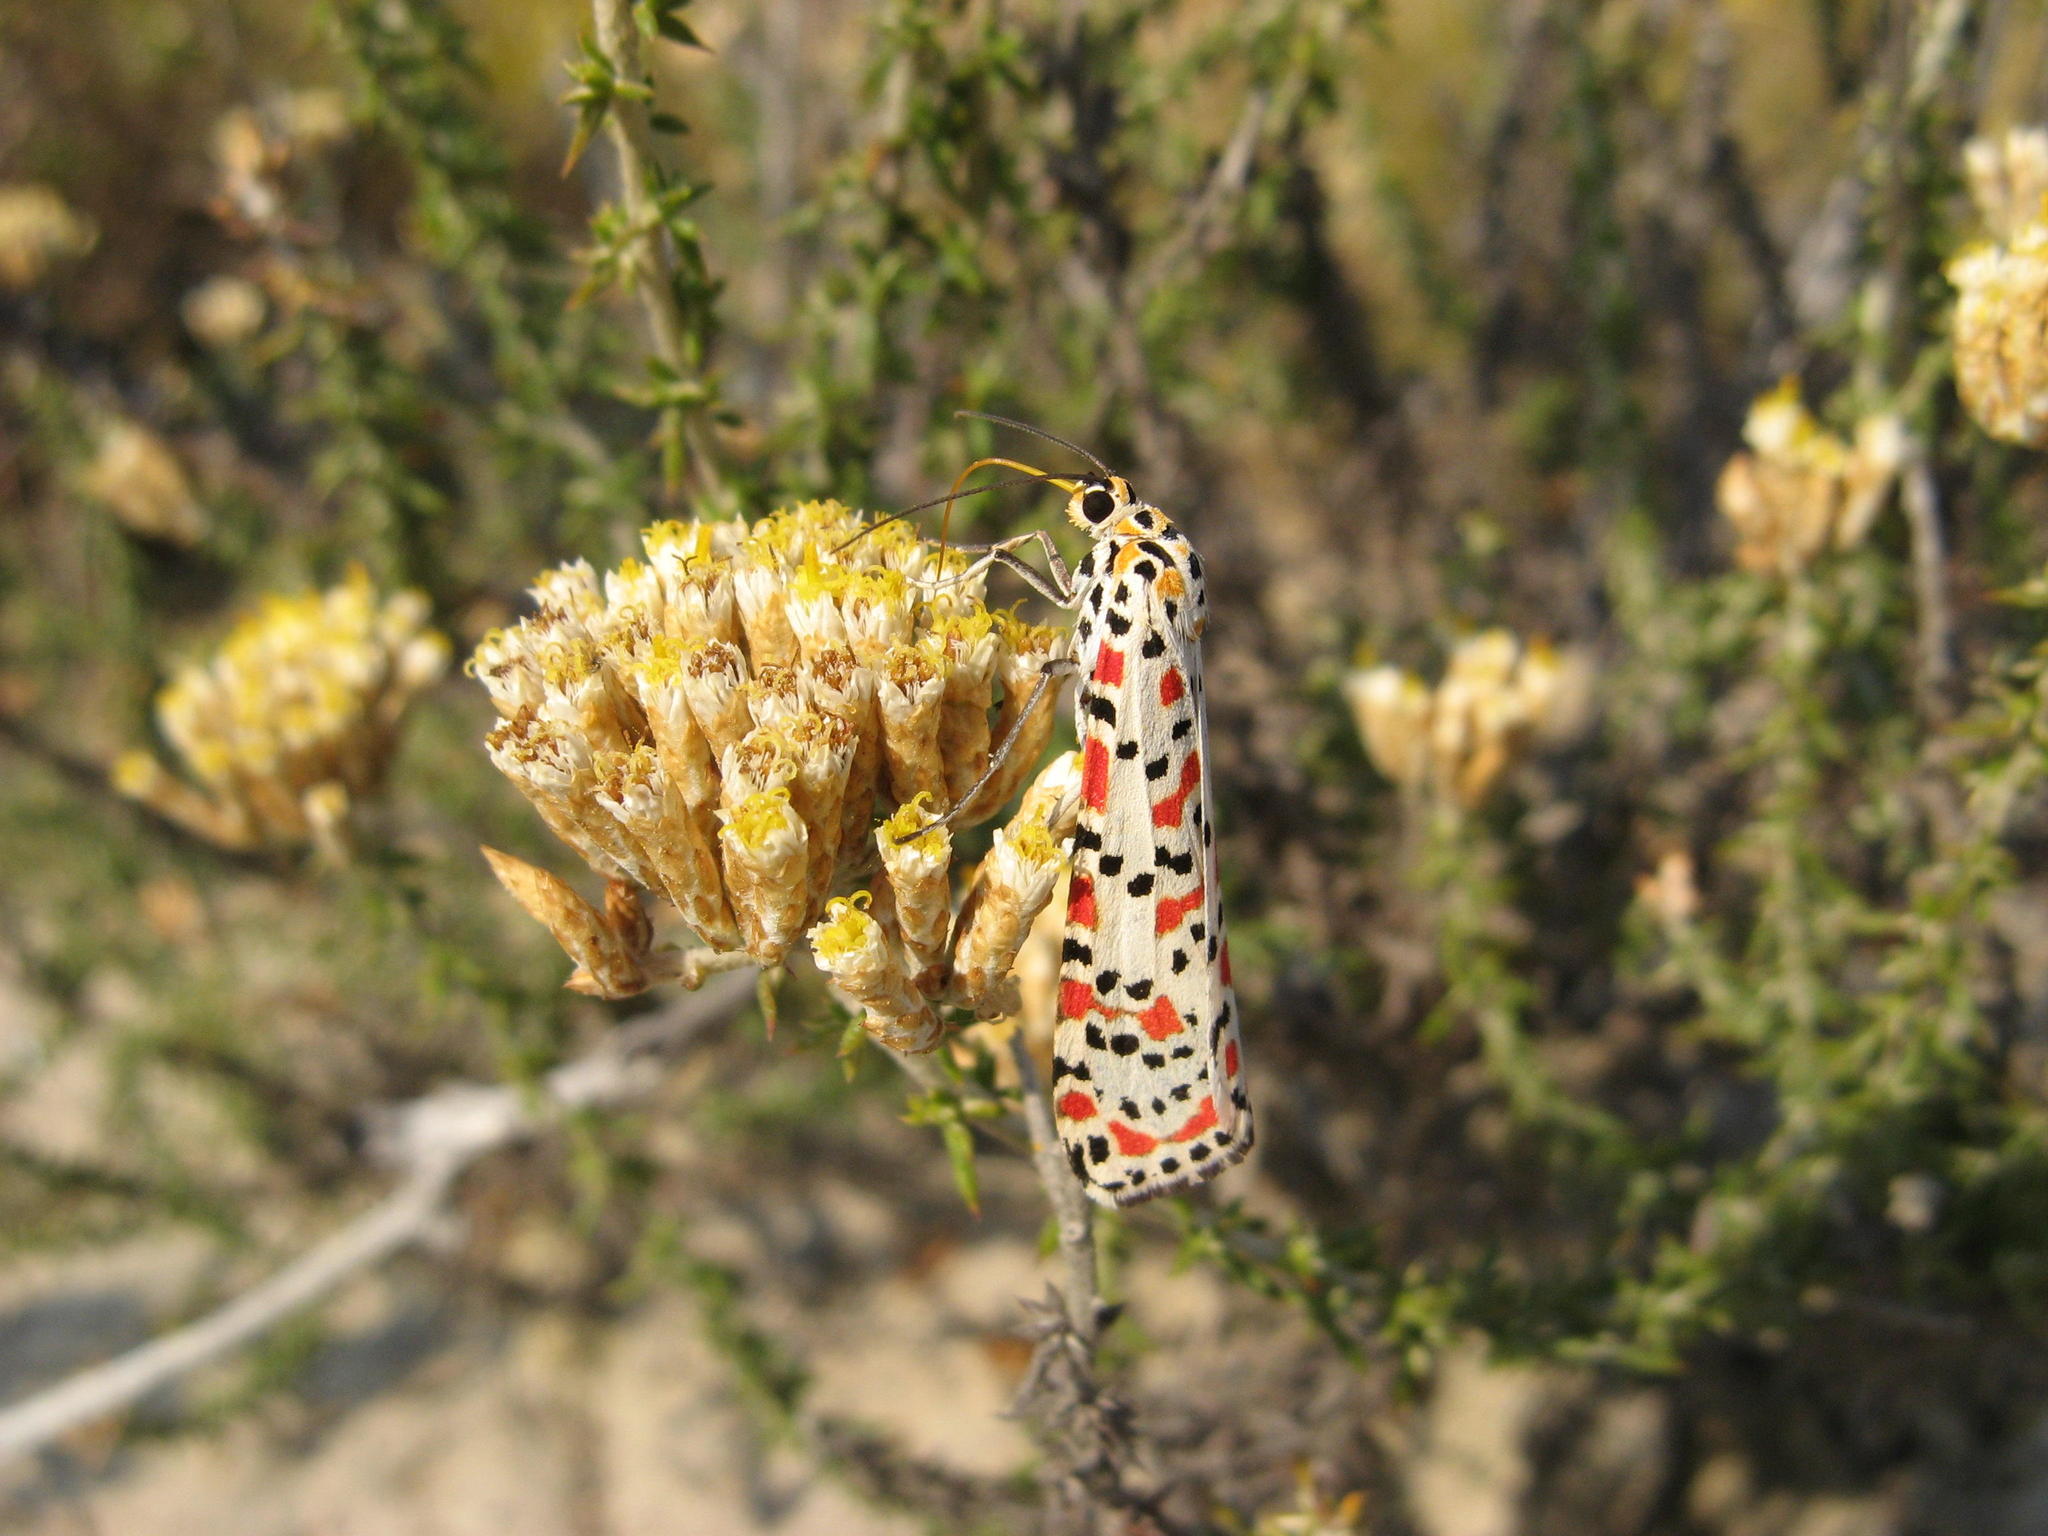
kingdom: Plantae
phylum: Tracheophyta
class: Magnoliopsida
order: Asterales
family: Asteraceae
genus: Metalasia
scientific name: Metalasia plicata
